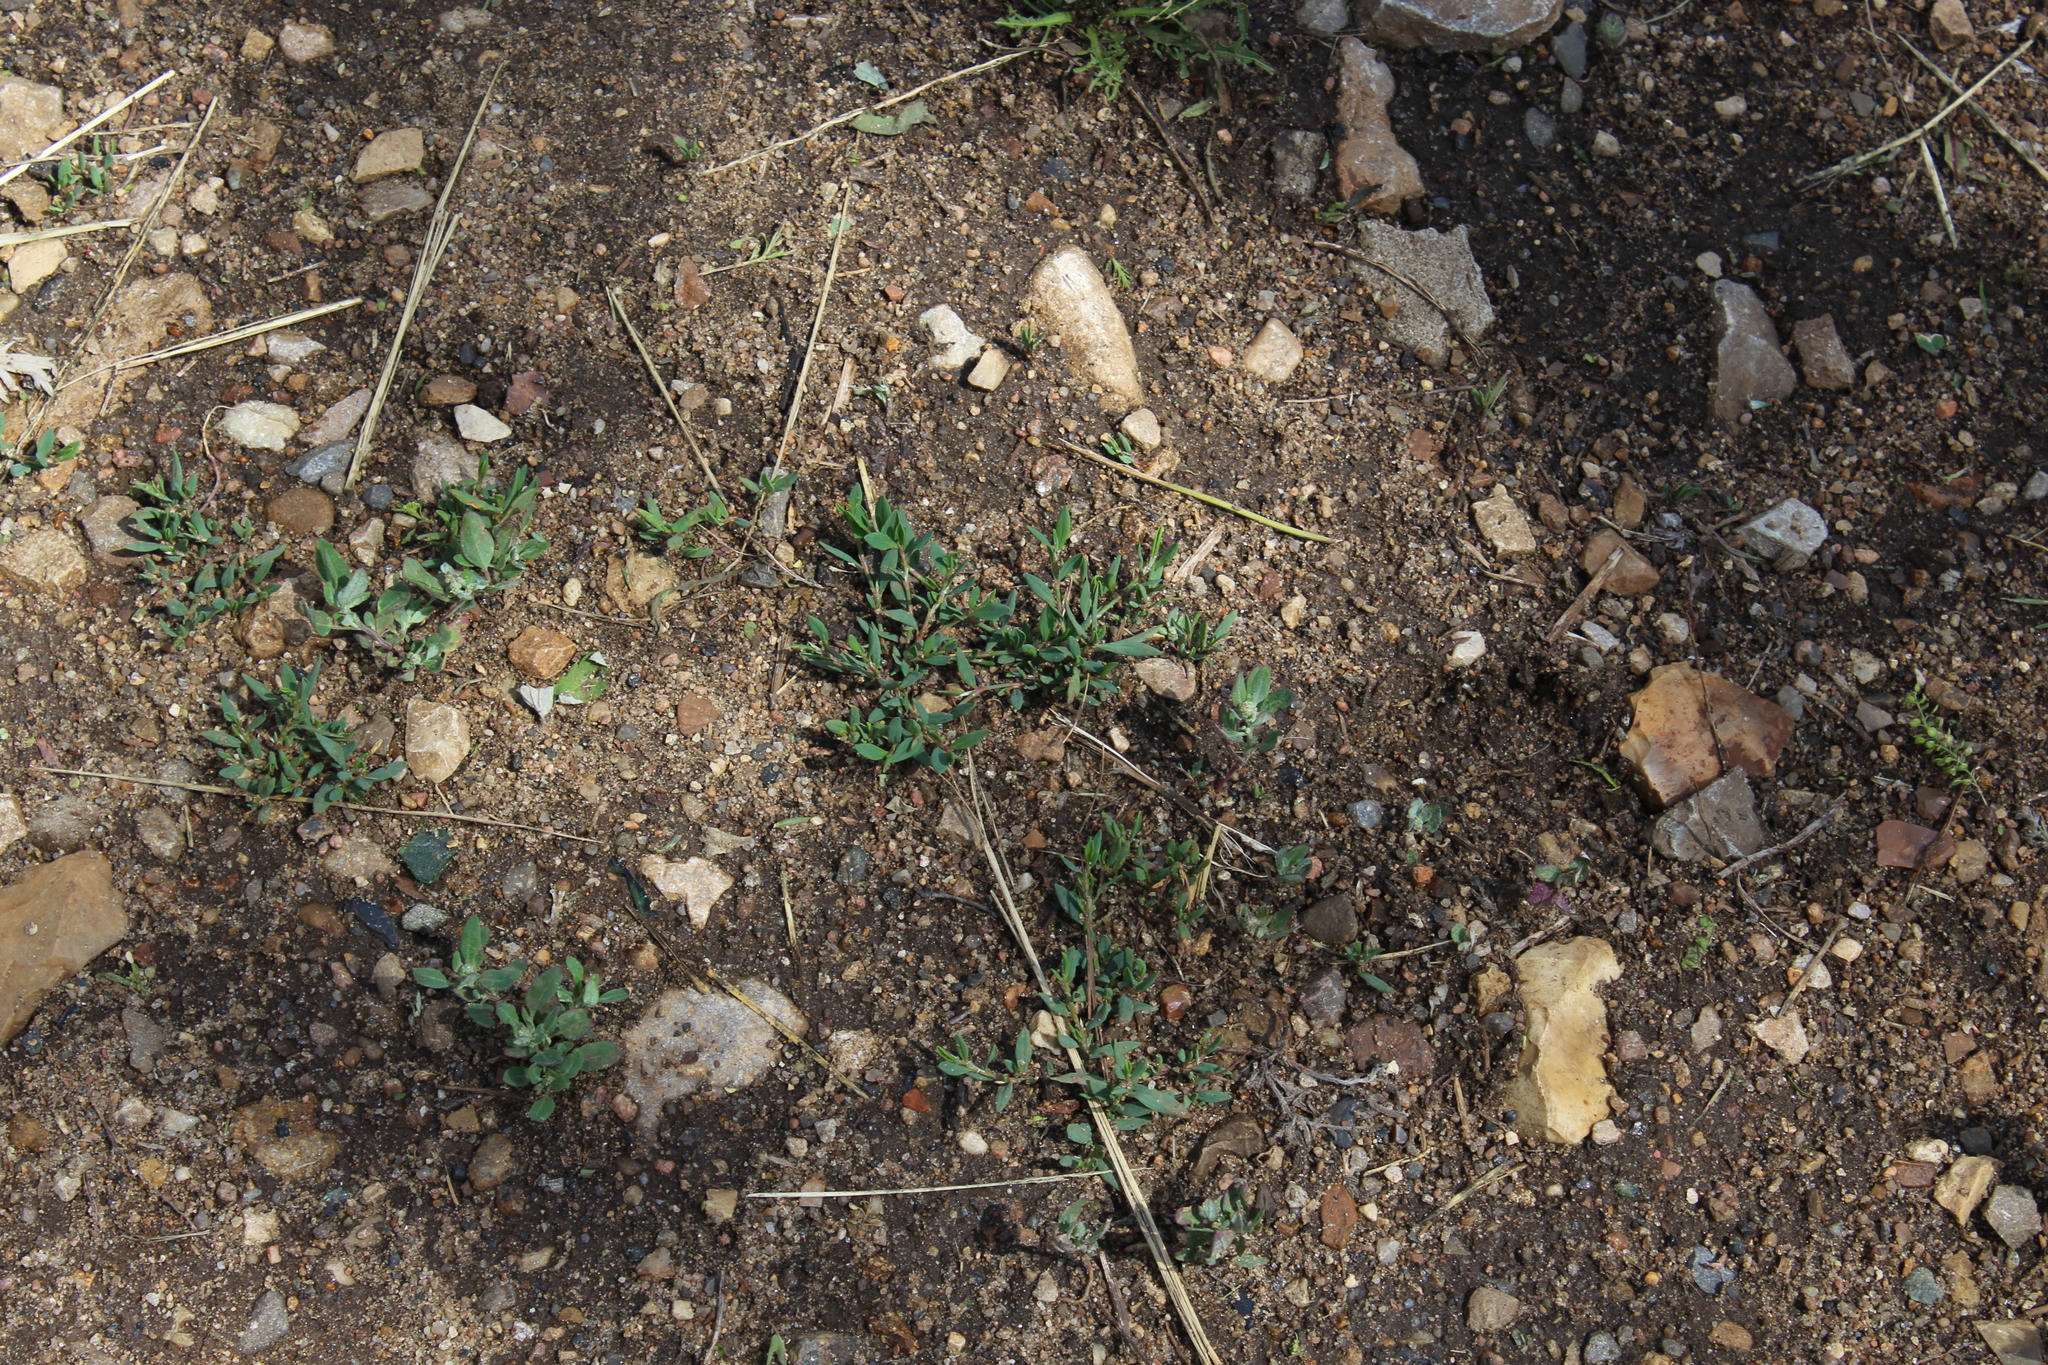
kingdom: Plantae
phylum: Tracheophyta
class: Magnoliopsida
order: Caryophyllales
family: Polygonaceae
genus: Polygonum
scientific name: Polygonum
